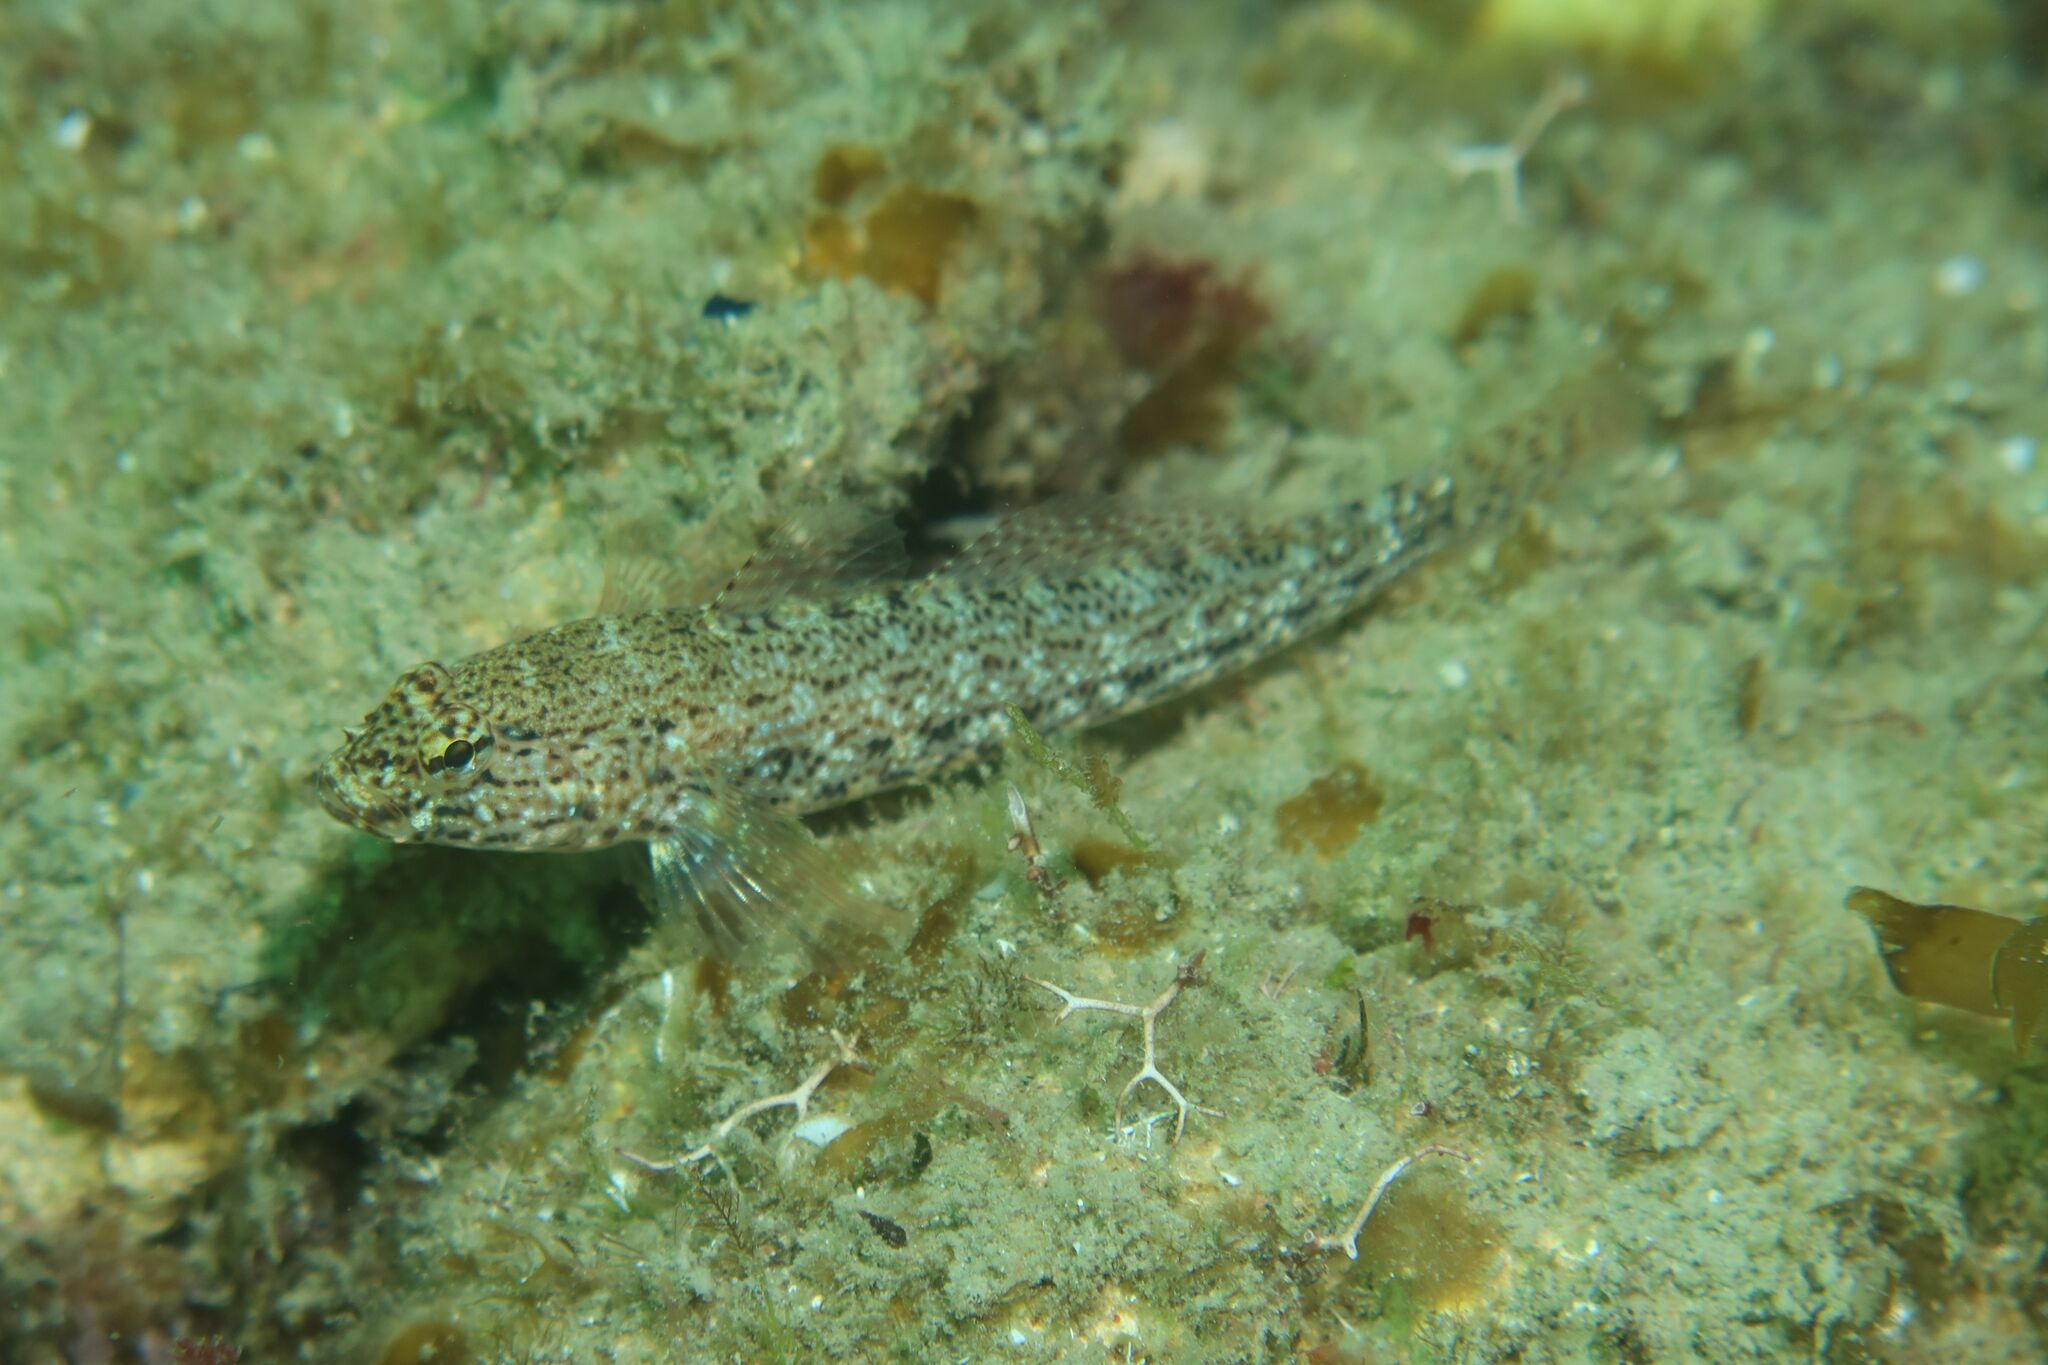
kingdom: Animalia
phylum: Chordata
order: Perciformes
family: Gobiidae
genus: Gobius
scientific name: Gobius incognitus
